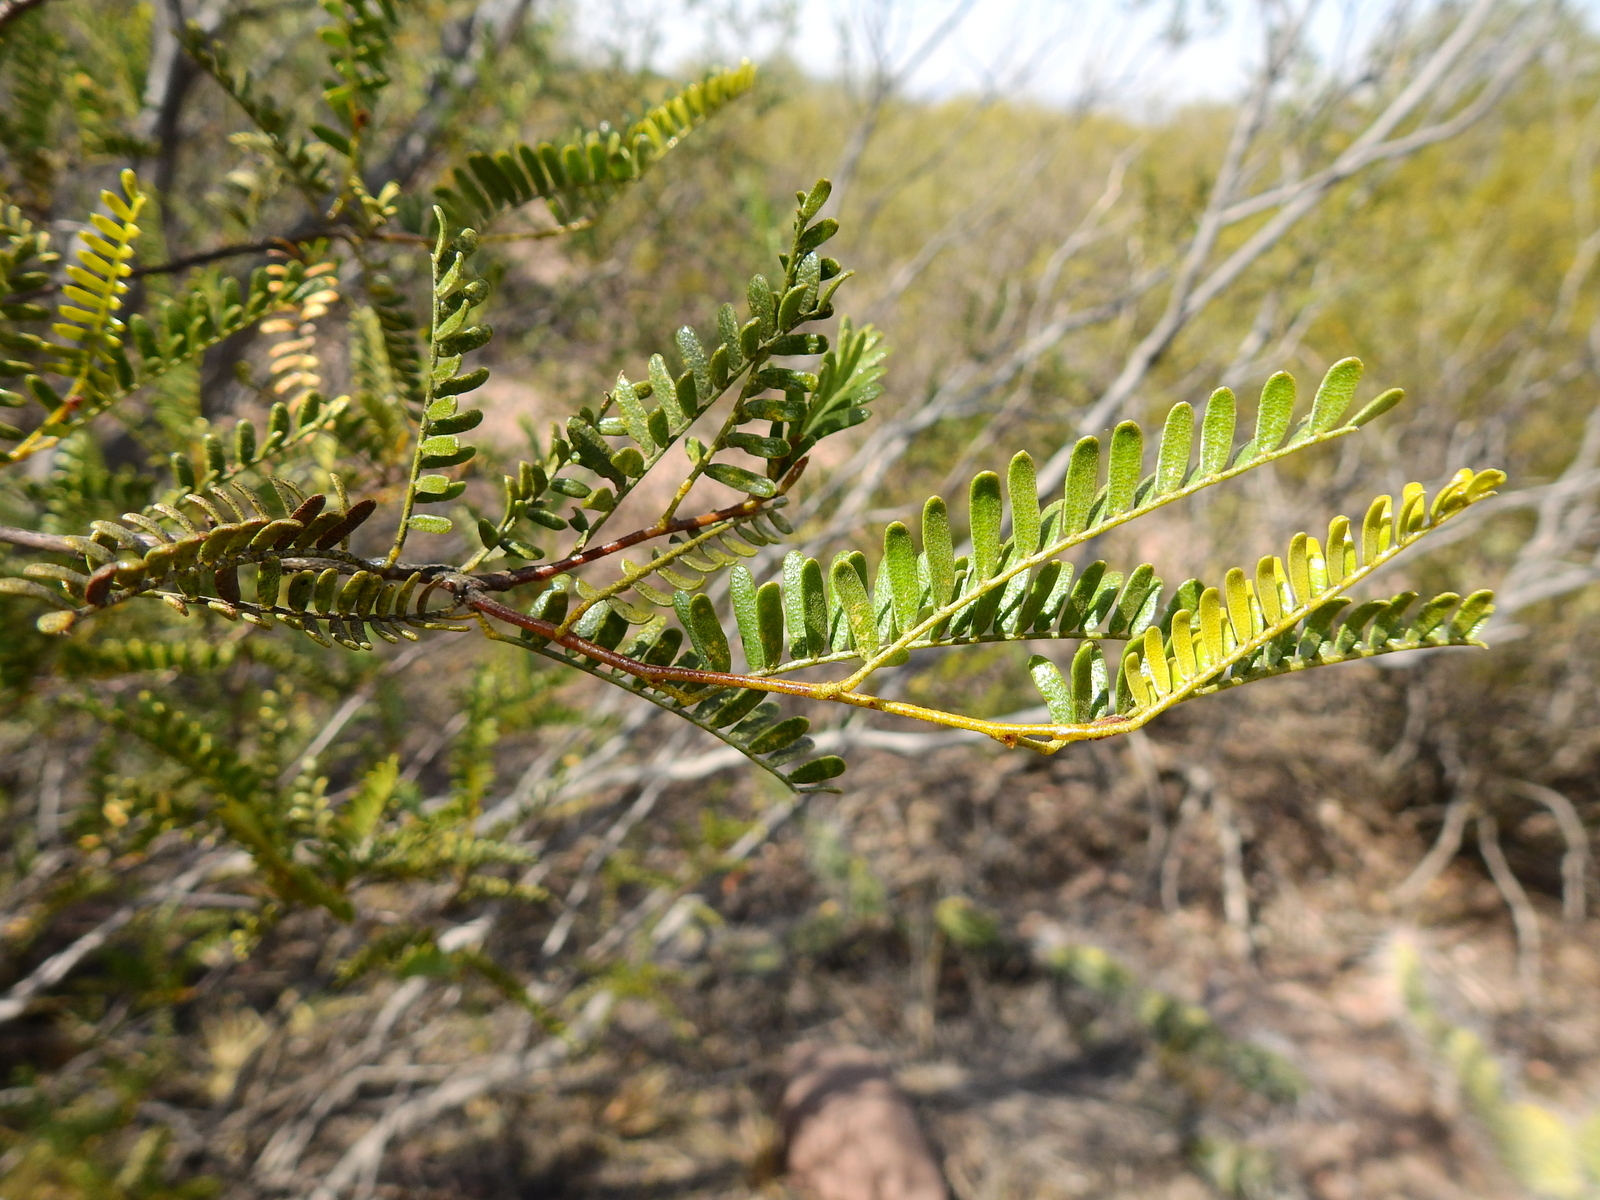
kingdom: Plantae
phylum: Tracheophyta
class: Magnoliopsida
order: Fabales
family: Fabaceae
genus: Zuccagnia
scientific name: Zuccagnia punctata
